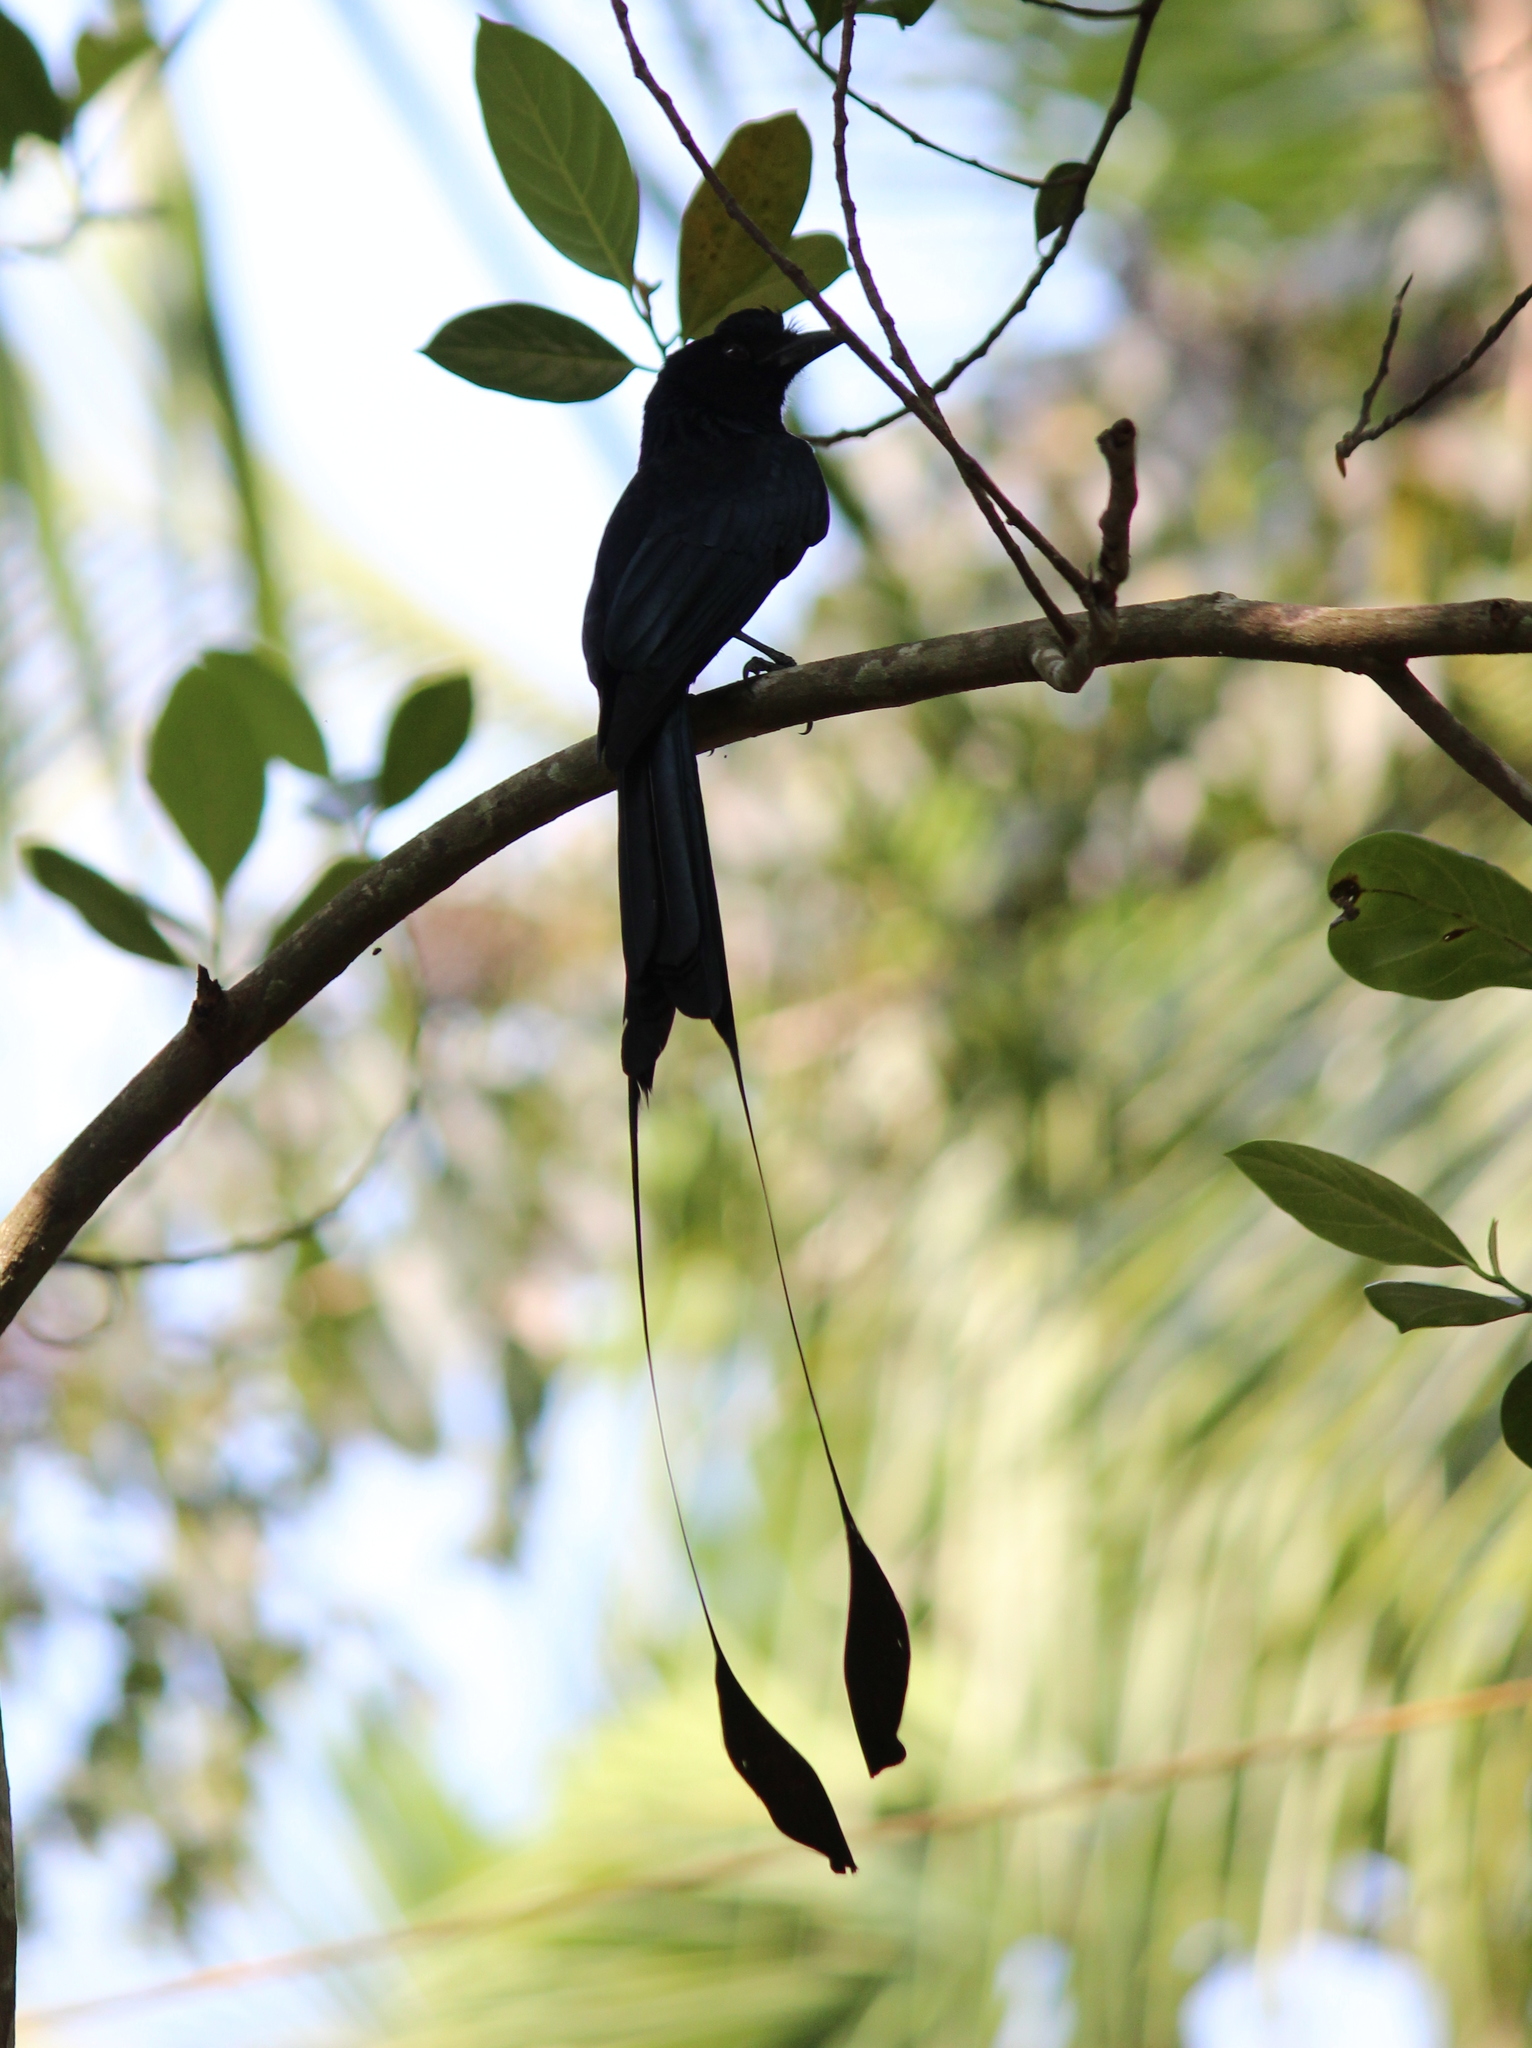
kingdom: Animalia
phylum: Chordata
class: Aves
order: Passeriformes
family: Dicruridae
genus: Dicrurus
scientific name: Dicrurus paradiseus
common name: Greater racket-tailed drongo
